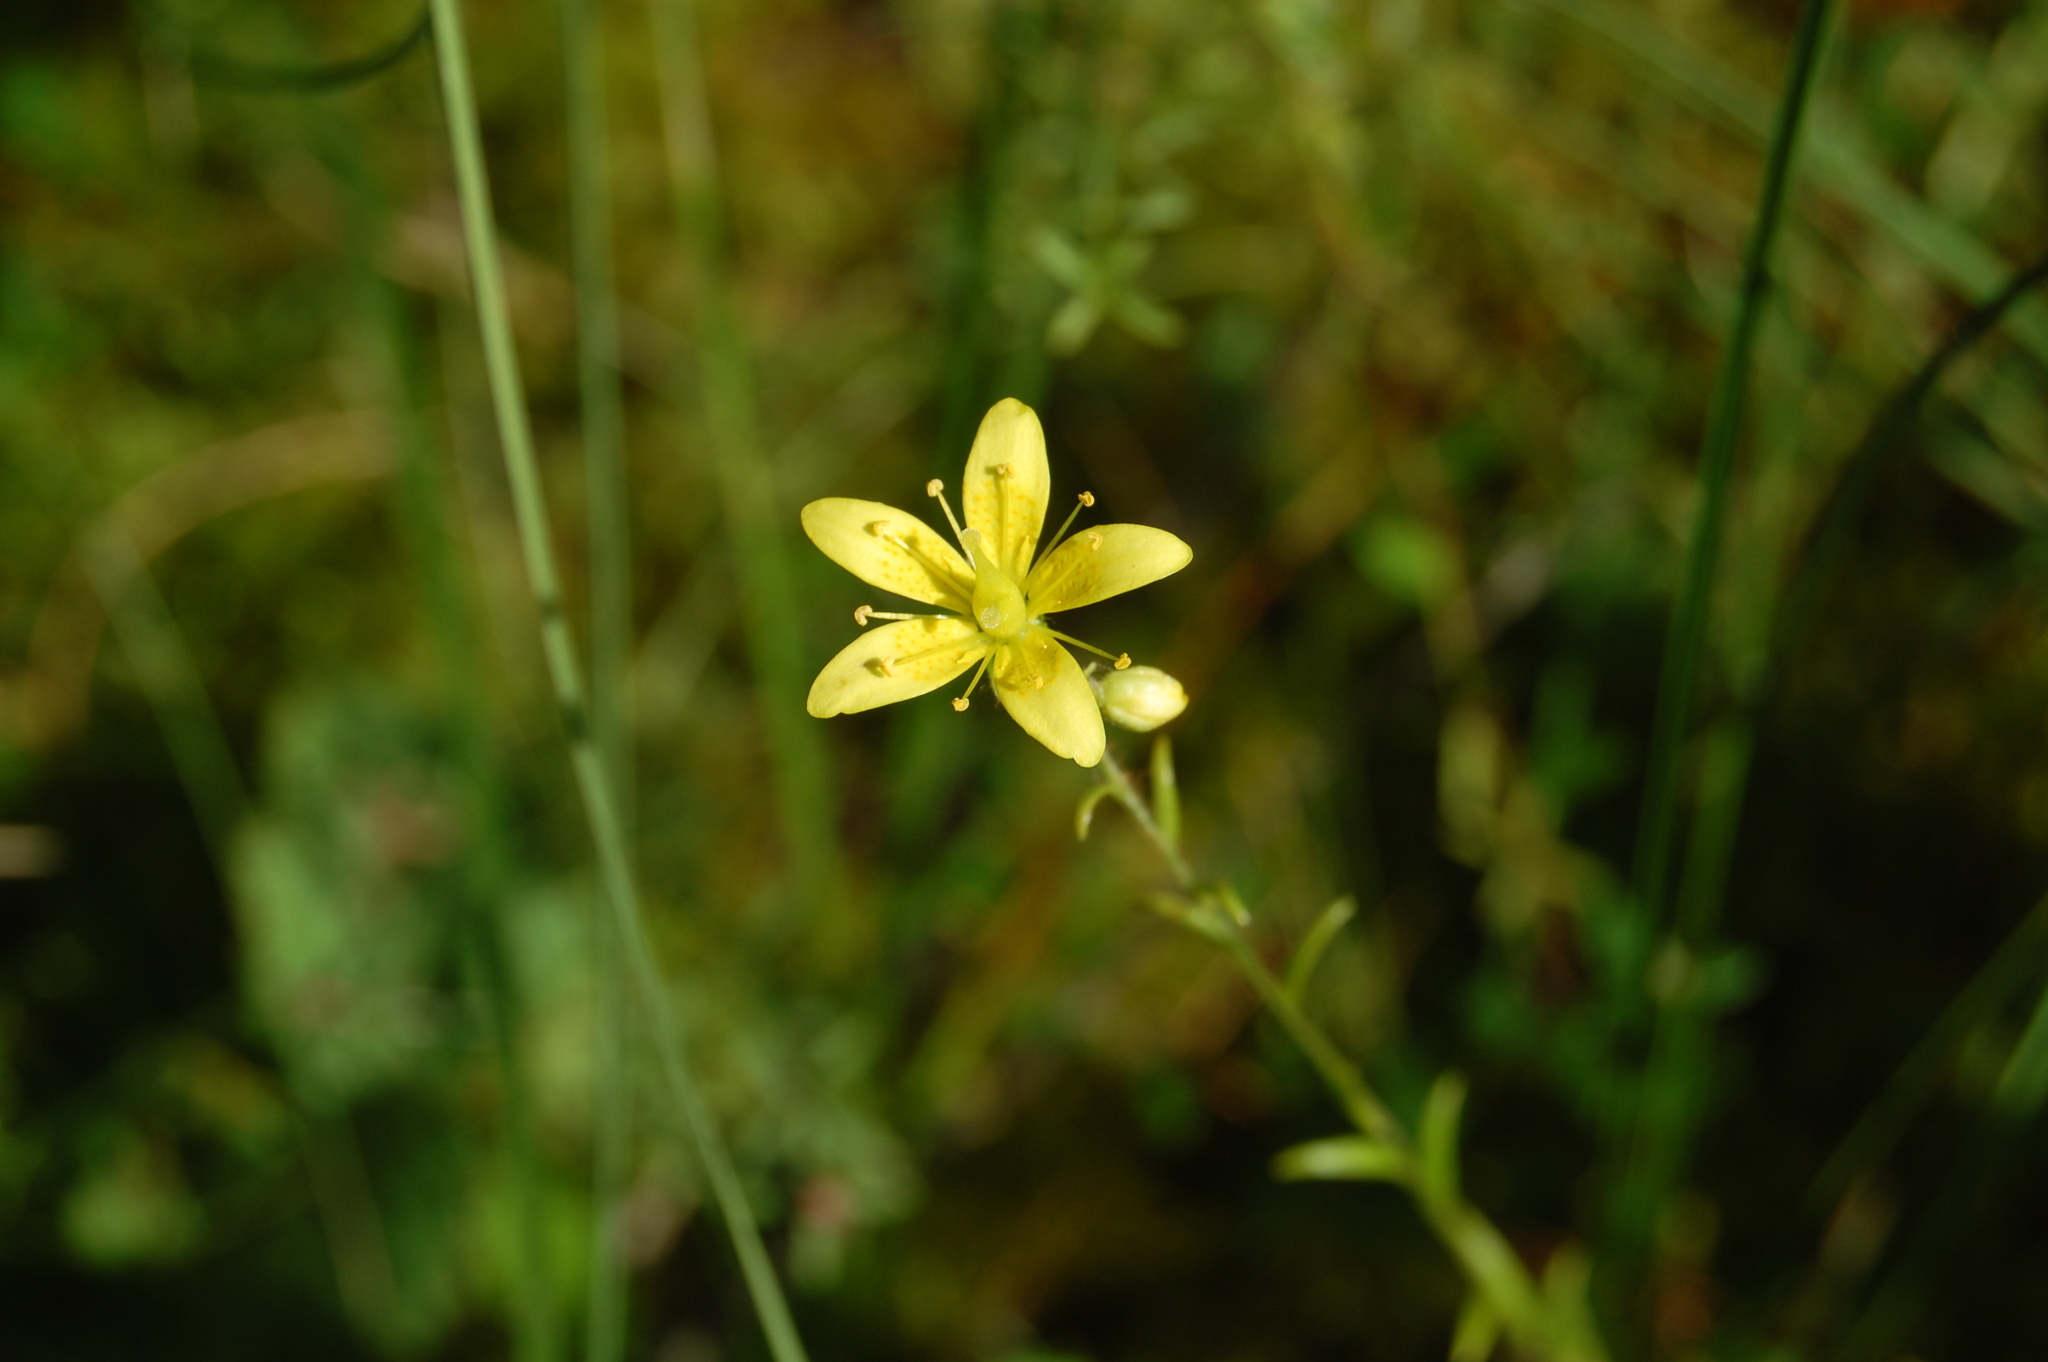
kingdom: Plantae
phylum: Tracheophyta
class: Magnoliopsida
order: Saxifragales
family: Saxifragaceae
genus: Saxifraga
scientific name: Saxifraga hirculus
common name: Yellow marsh saxifrage
